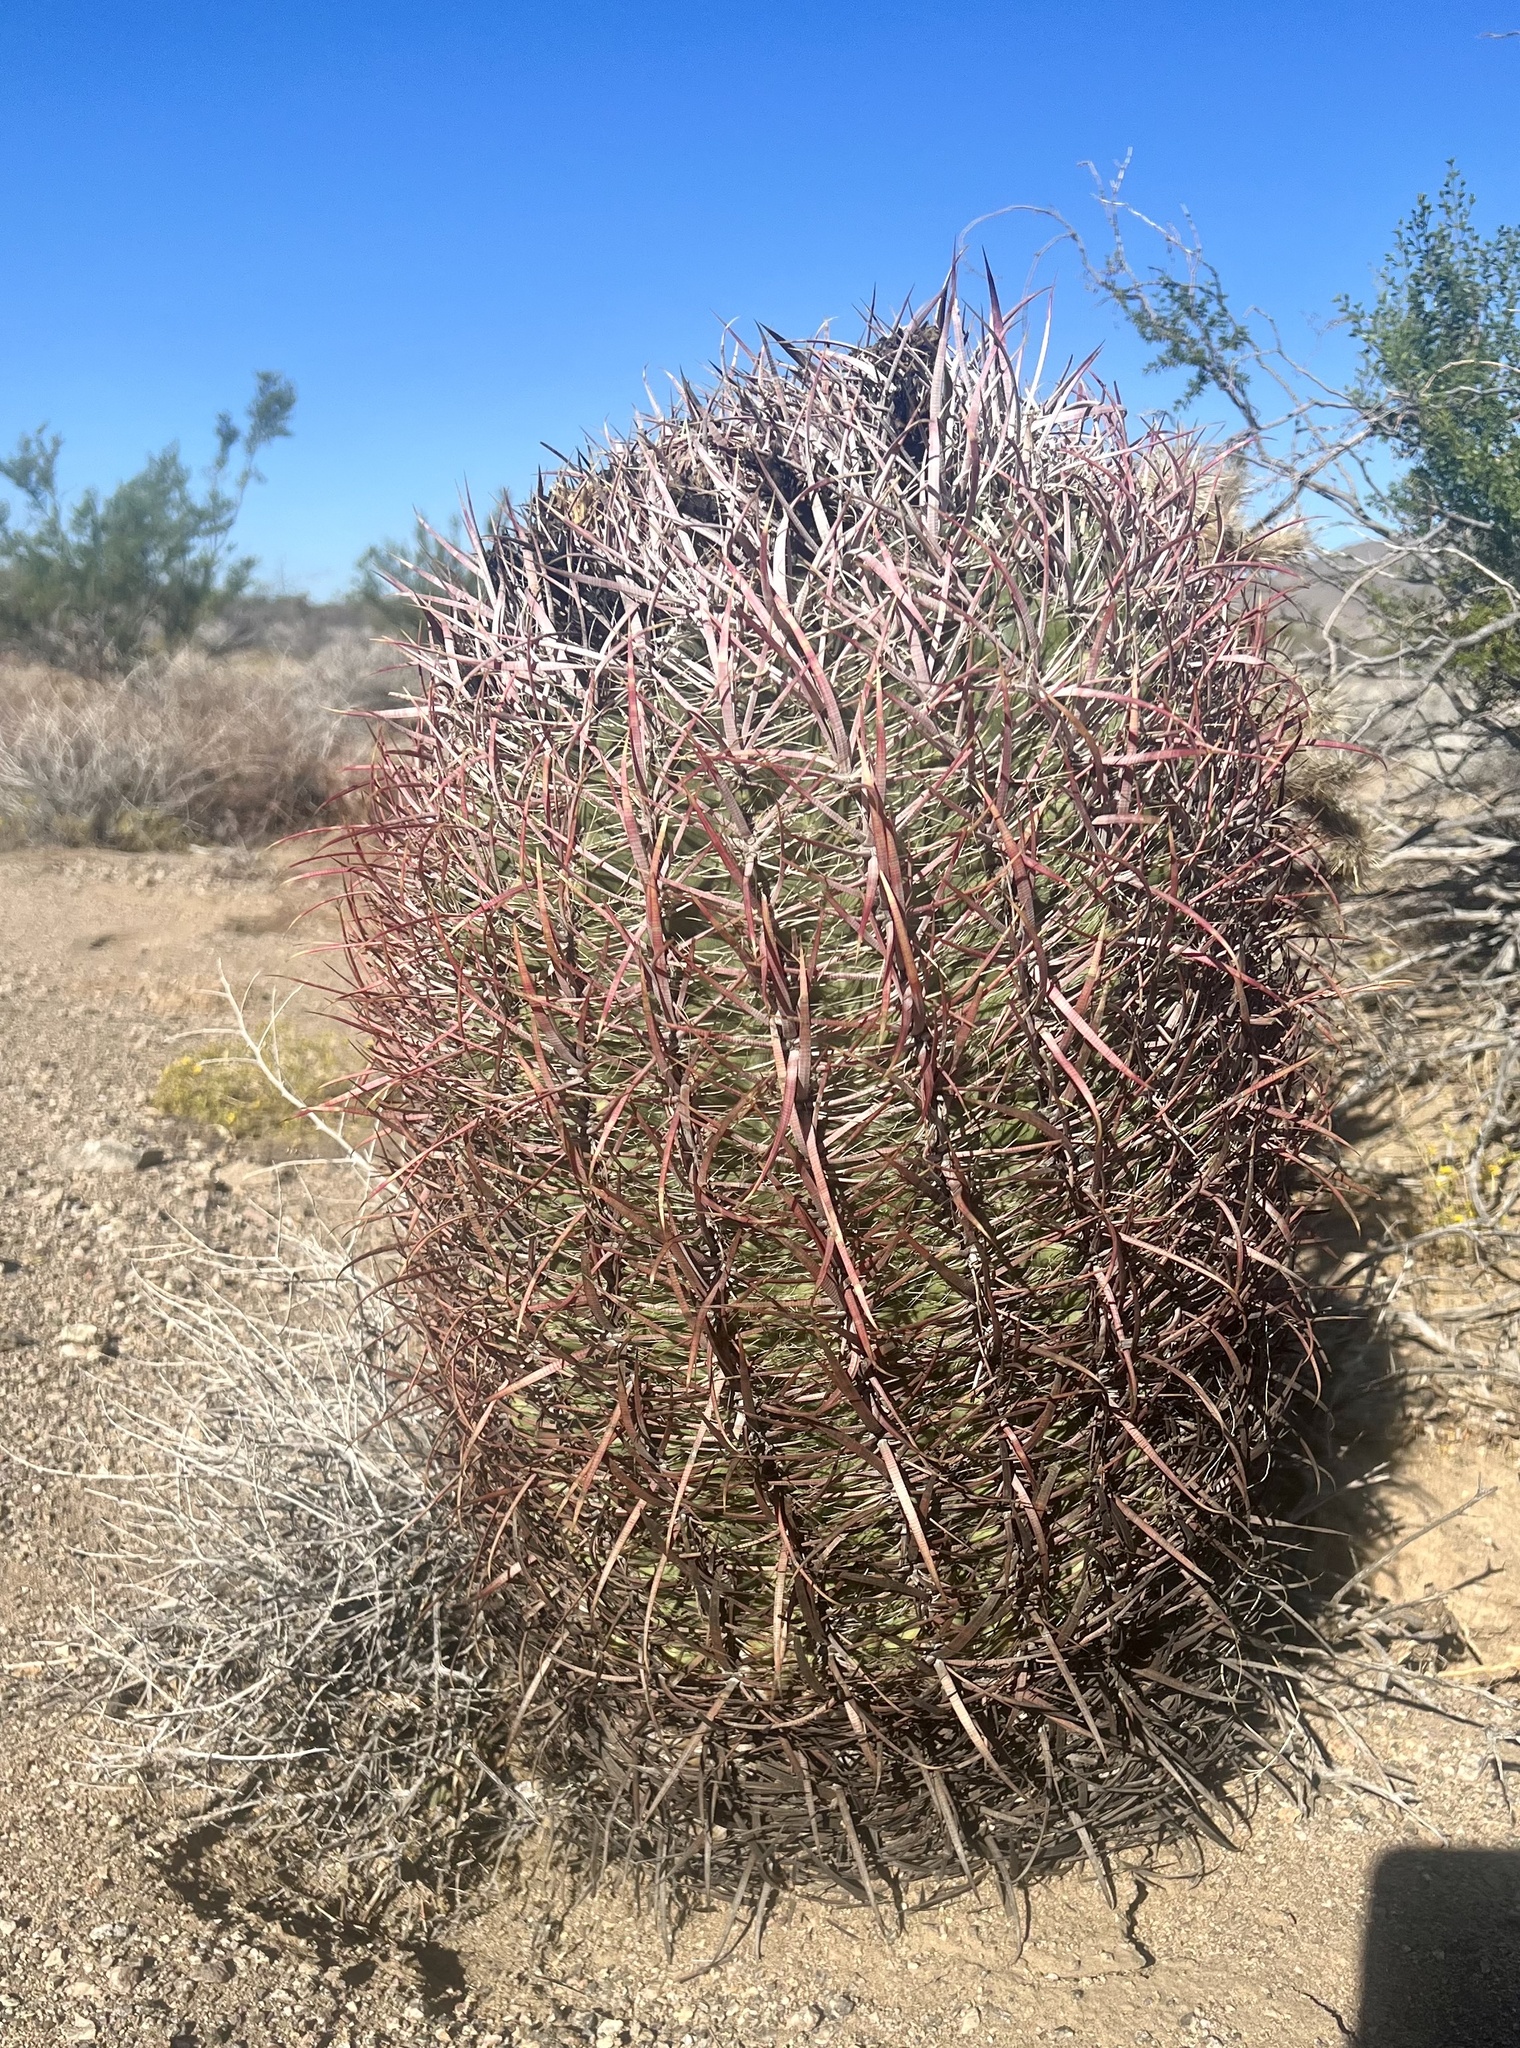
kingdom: Plantae
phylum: Tracheophyta
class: Magnoliopsida
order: Caryophyllales
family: Cactaceae
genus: Ferocactus
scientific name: Ferocactus cylindraceus
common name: California barrel cactus
